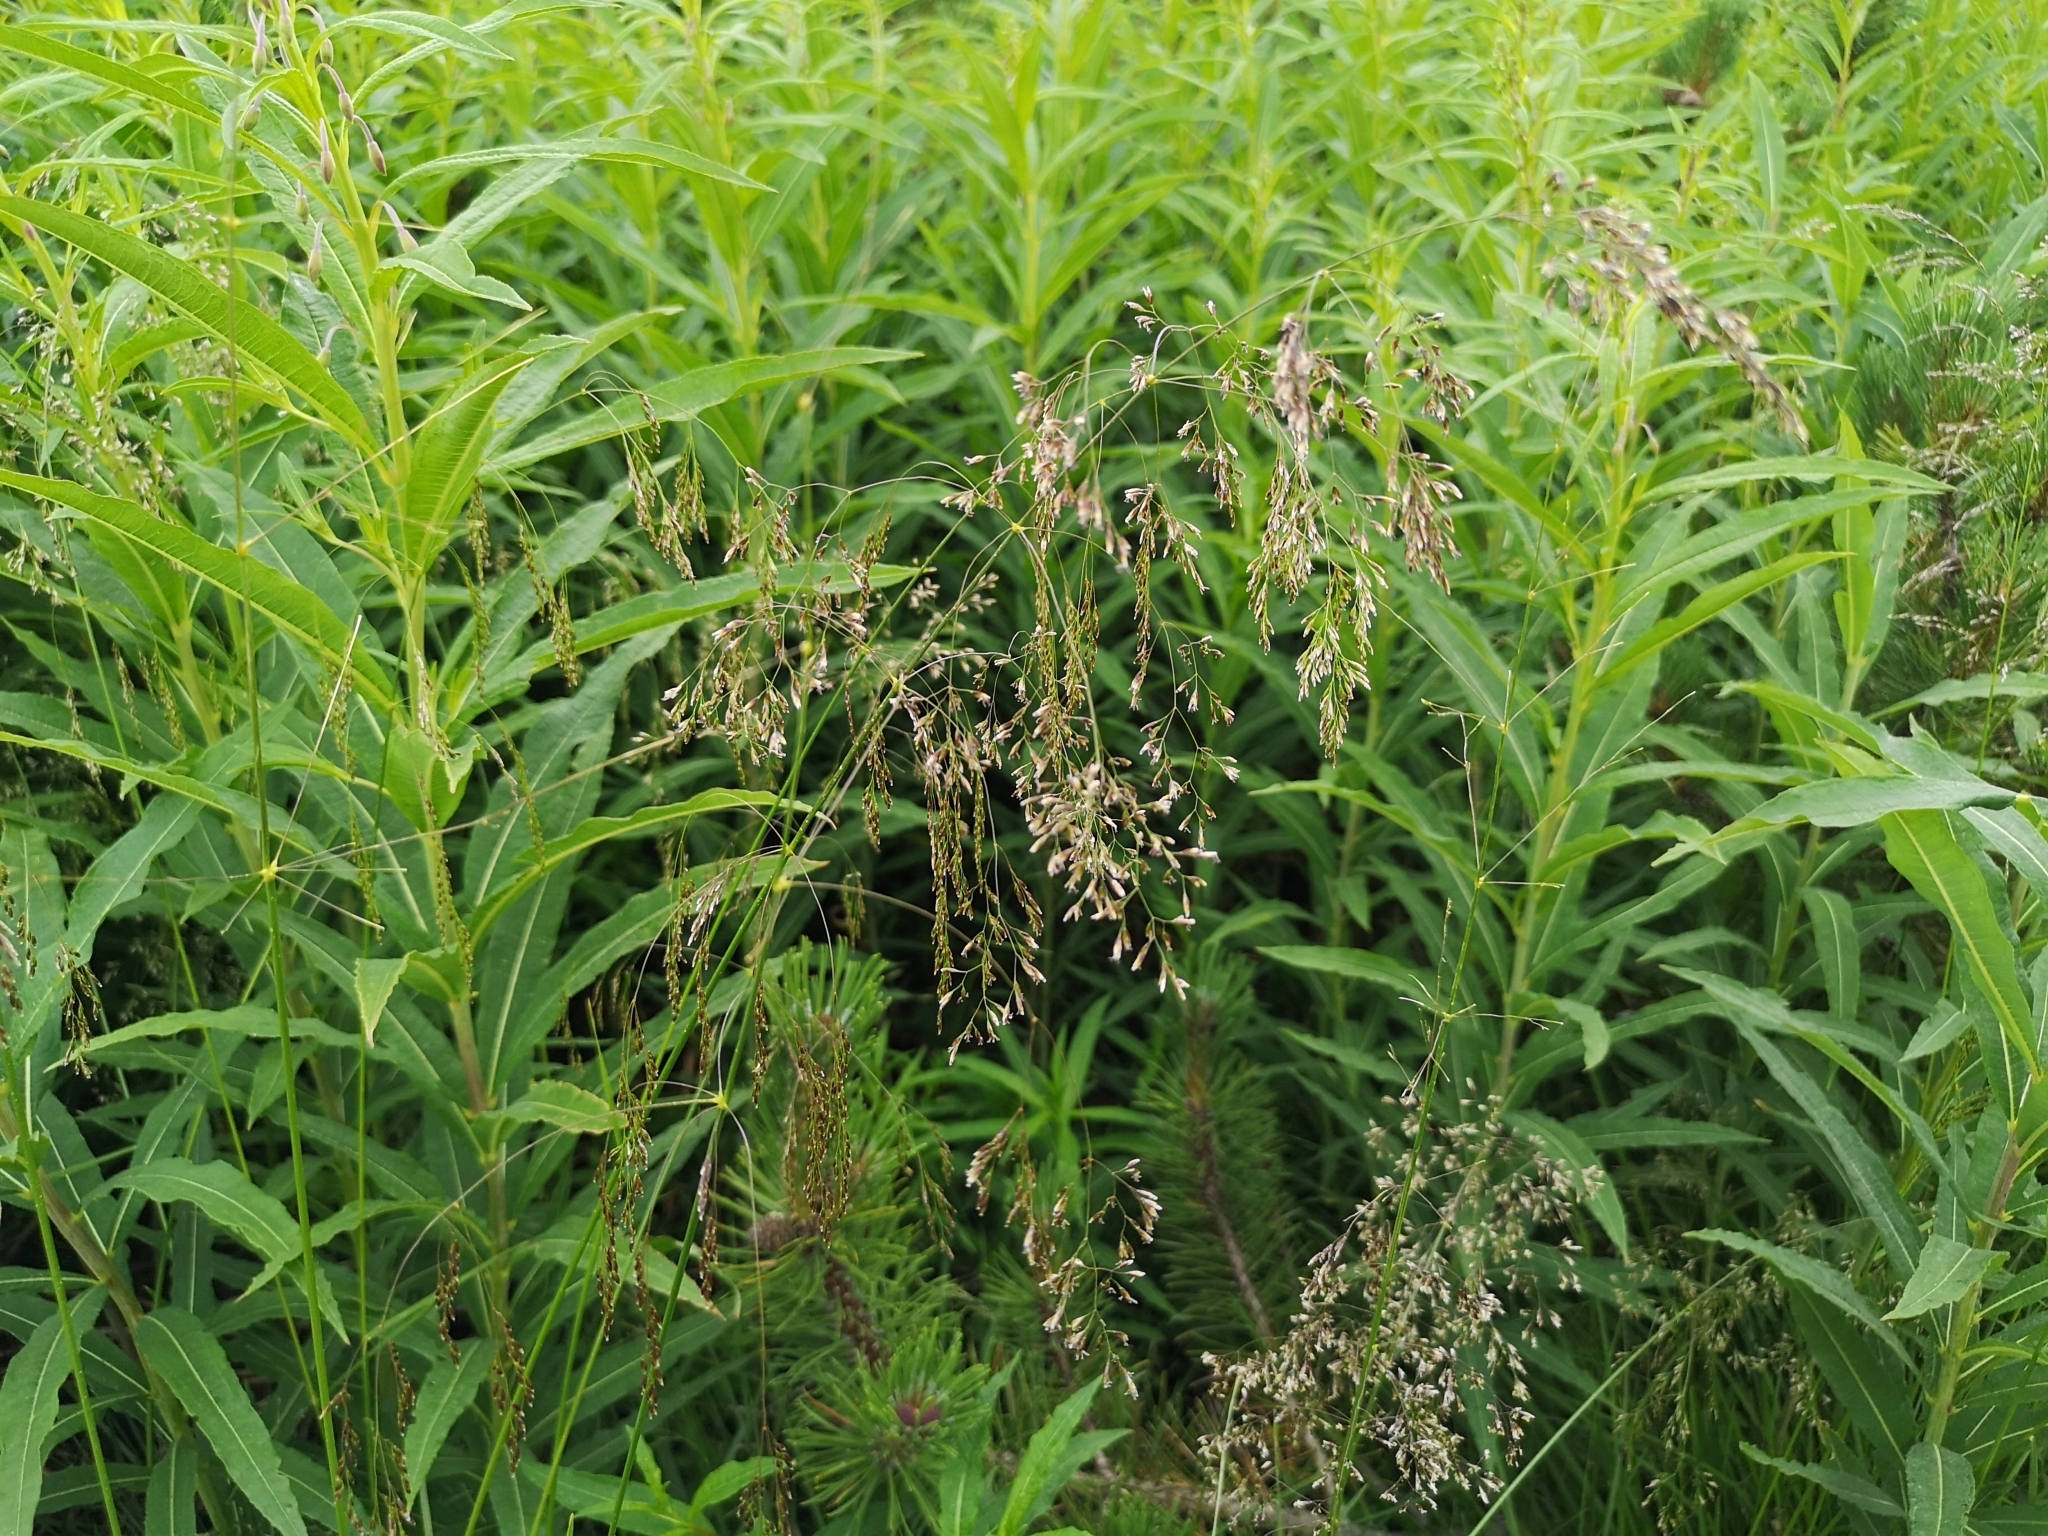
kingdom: Plantae
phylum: Tracheophyta
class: Liliopsida
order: Poales
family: Poaceae
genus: Deschampsia
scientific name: Deschampsia cespitosa
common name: Tufted hair-grass
